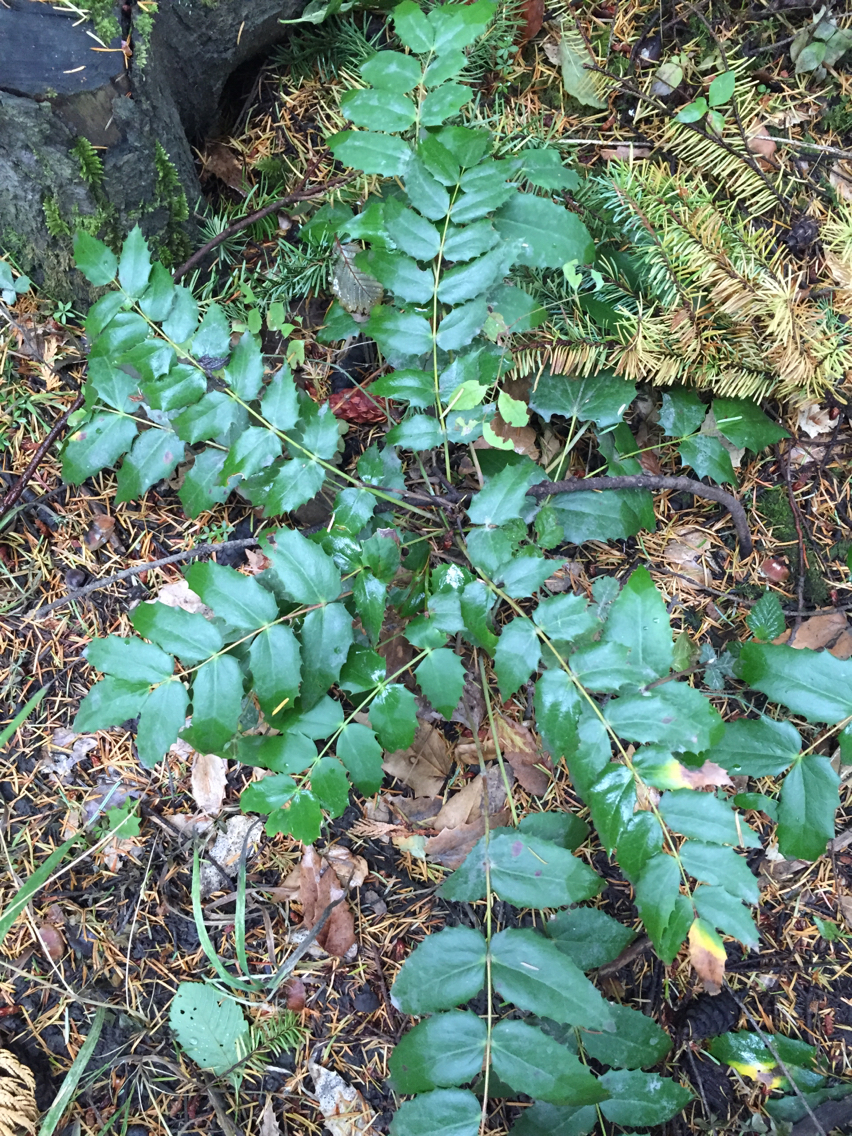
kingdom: Plantae
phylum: Tracheophyta
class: Magnoliopsida
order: Ranunculales
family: Berberidaceae
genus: Mahonia
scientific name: Mahonia nervosa
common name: Cascade oregon-grape
